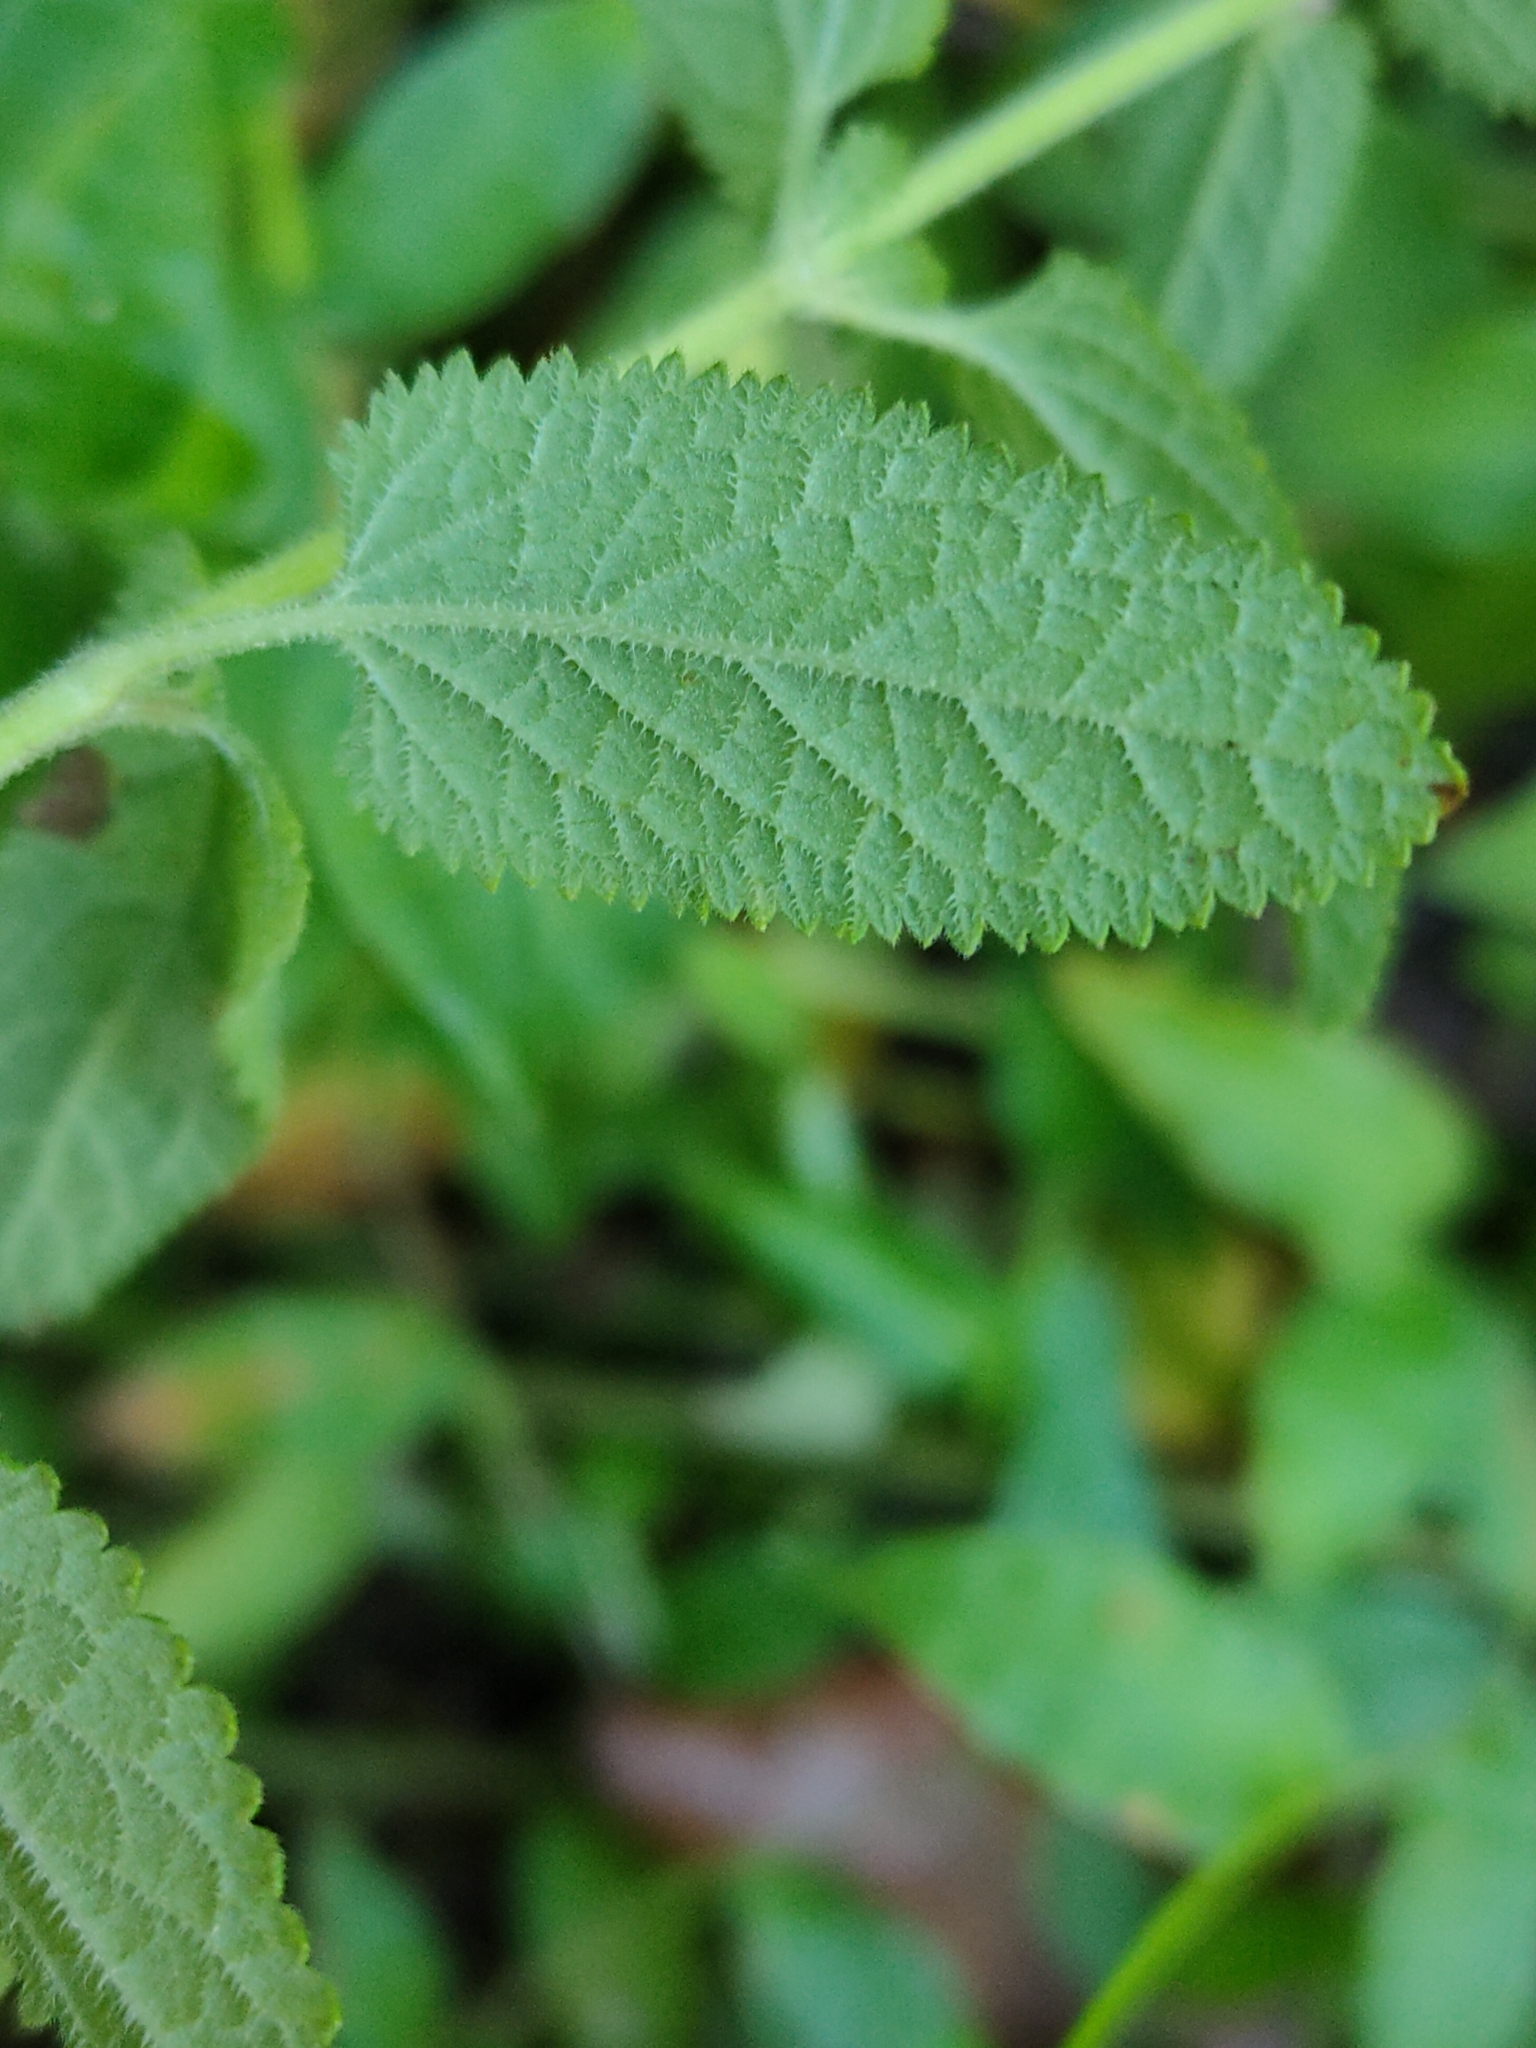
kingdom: Plantae
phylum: Tracheophyta
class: Magnoliopsida
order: Lamiales
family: Lamiaceae
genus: Teucrium
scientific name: Teucrium argutum
